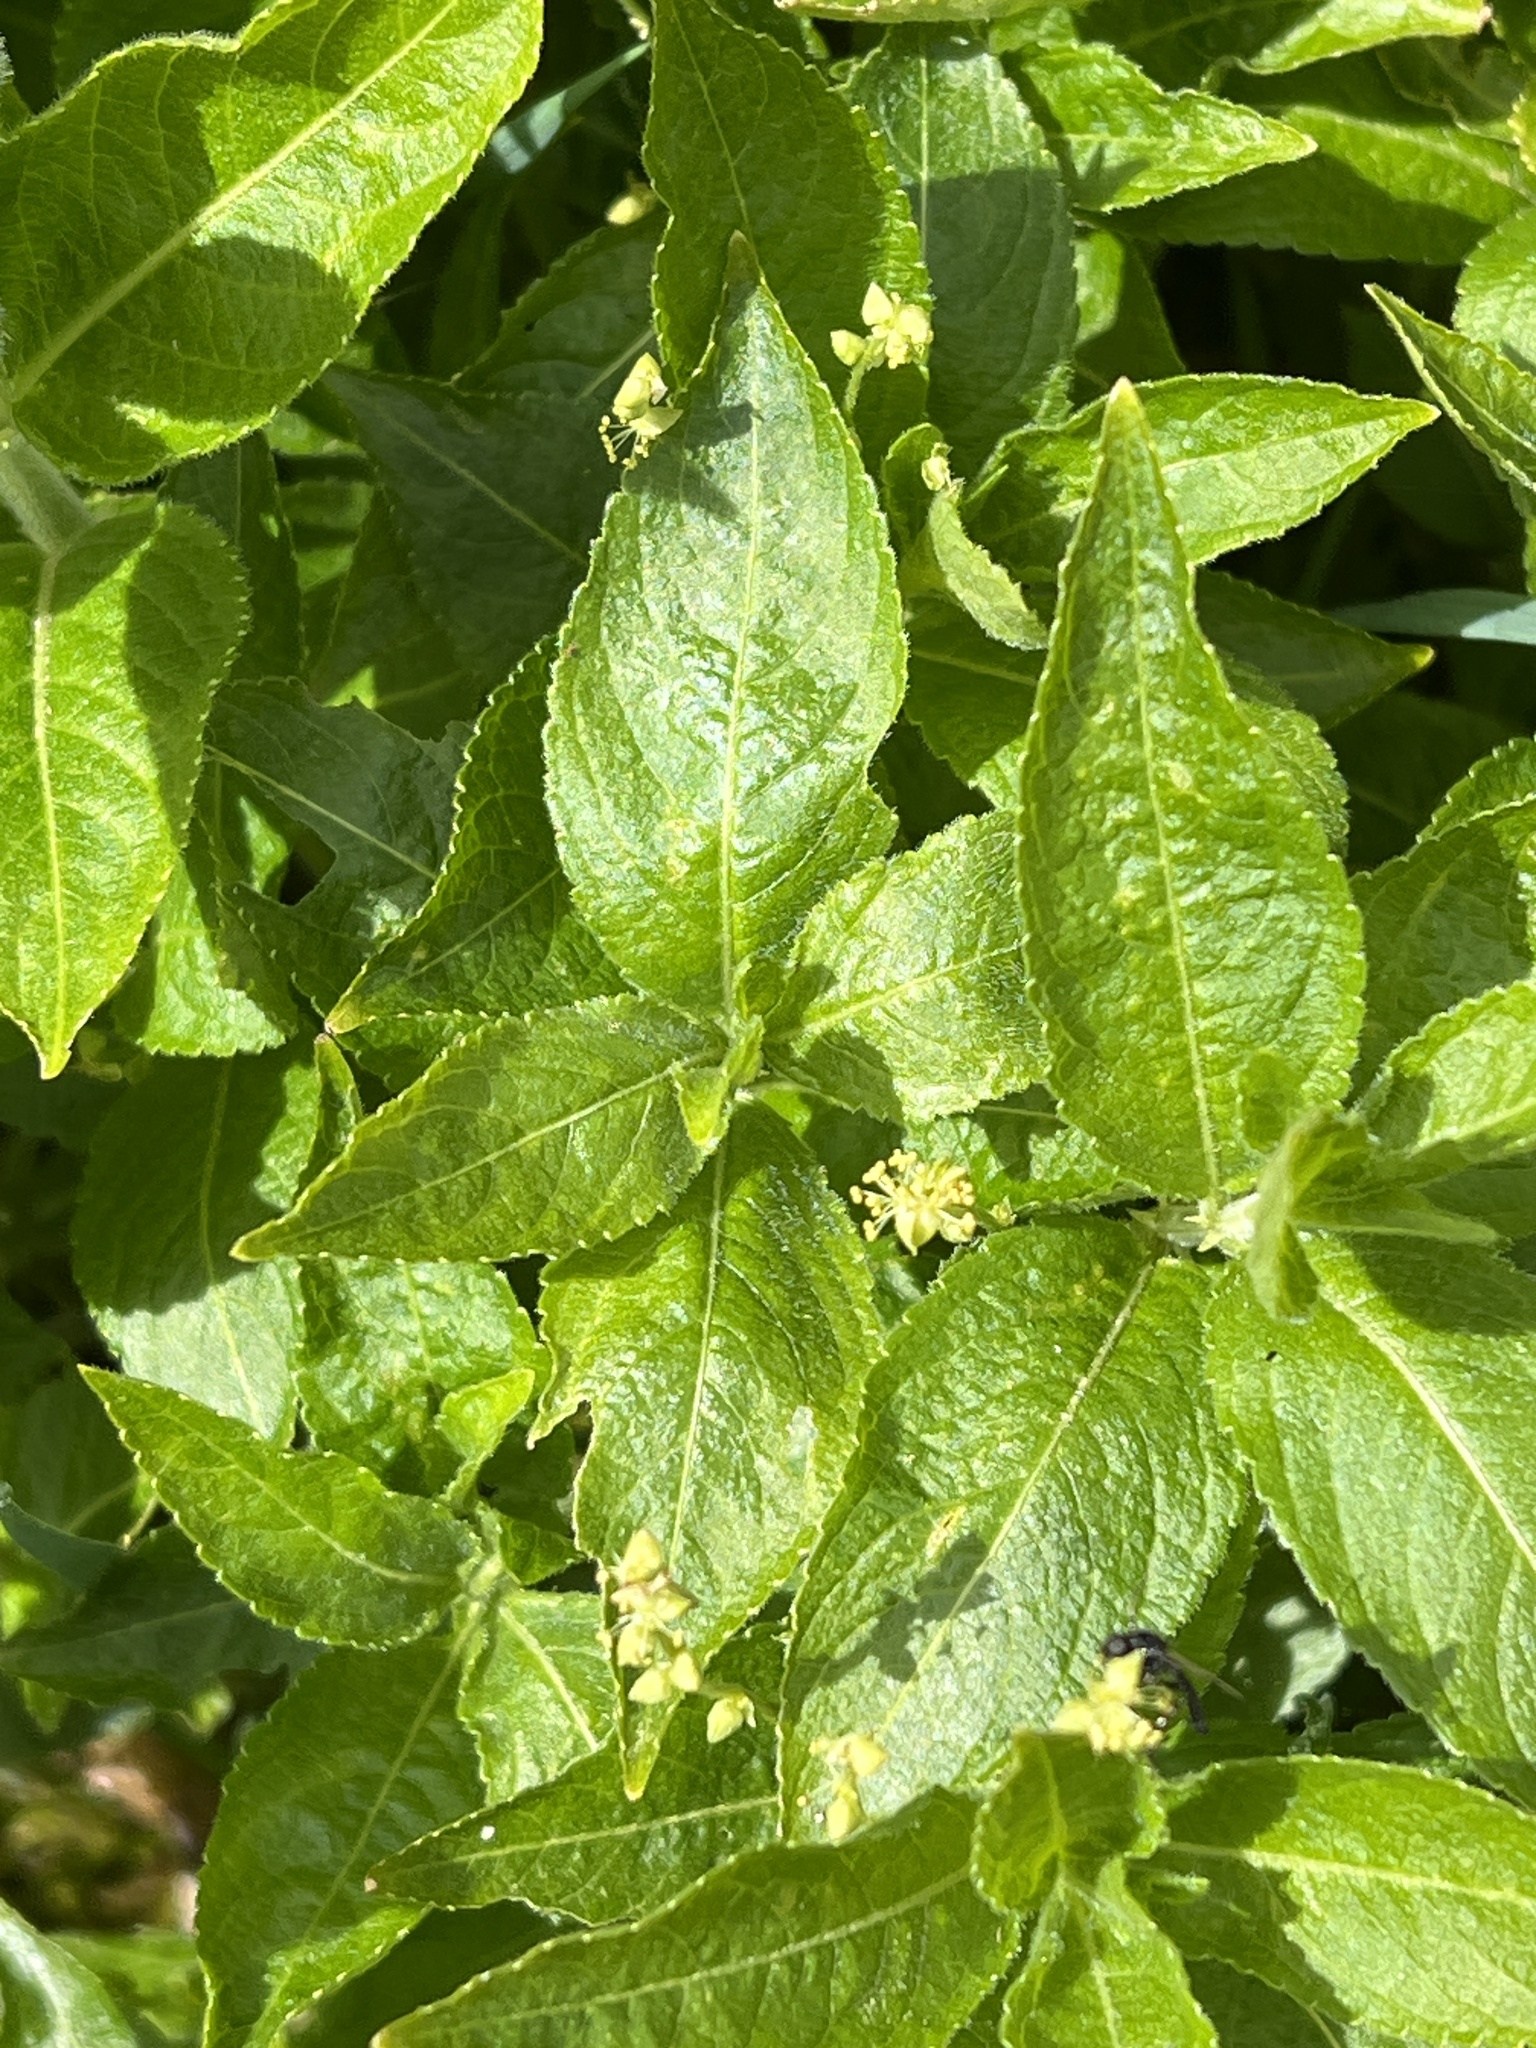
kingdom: Plantae
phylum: Tracheophyta
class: Magnoliopsida
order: Malpighiales
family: Euphorbiaceae
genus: Mercurialis
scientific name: Mercurialis perennis
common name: Dog mercury
